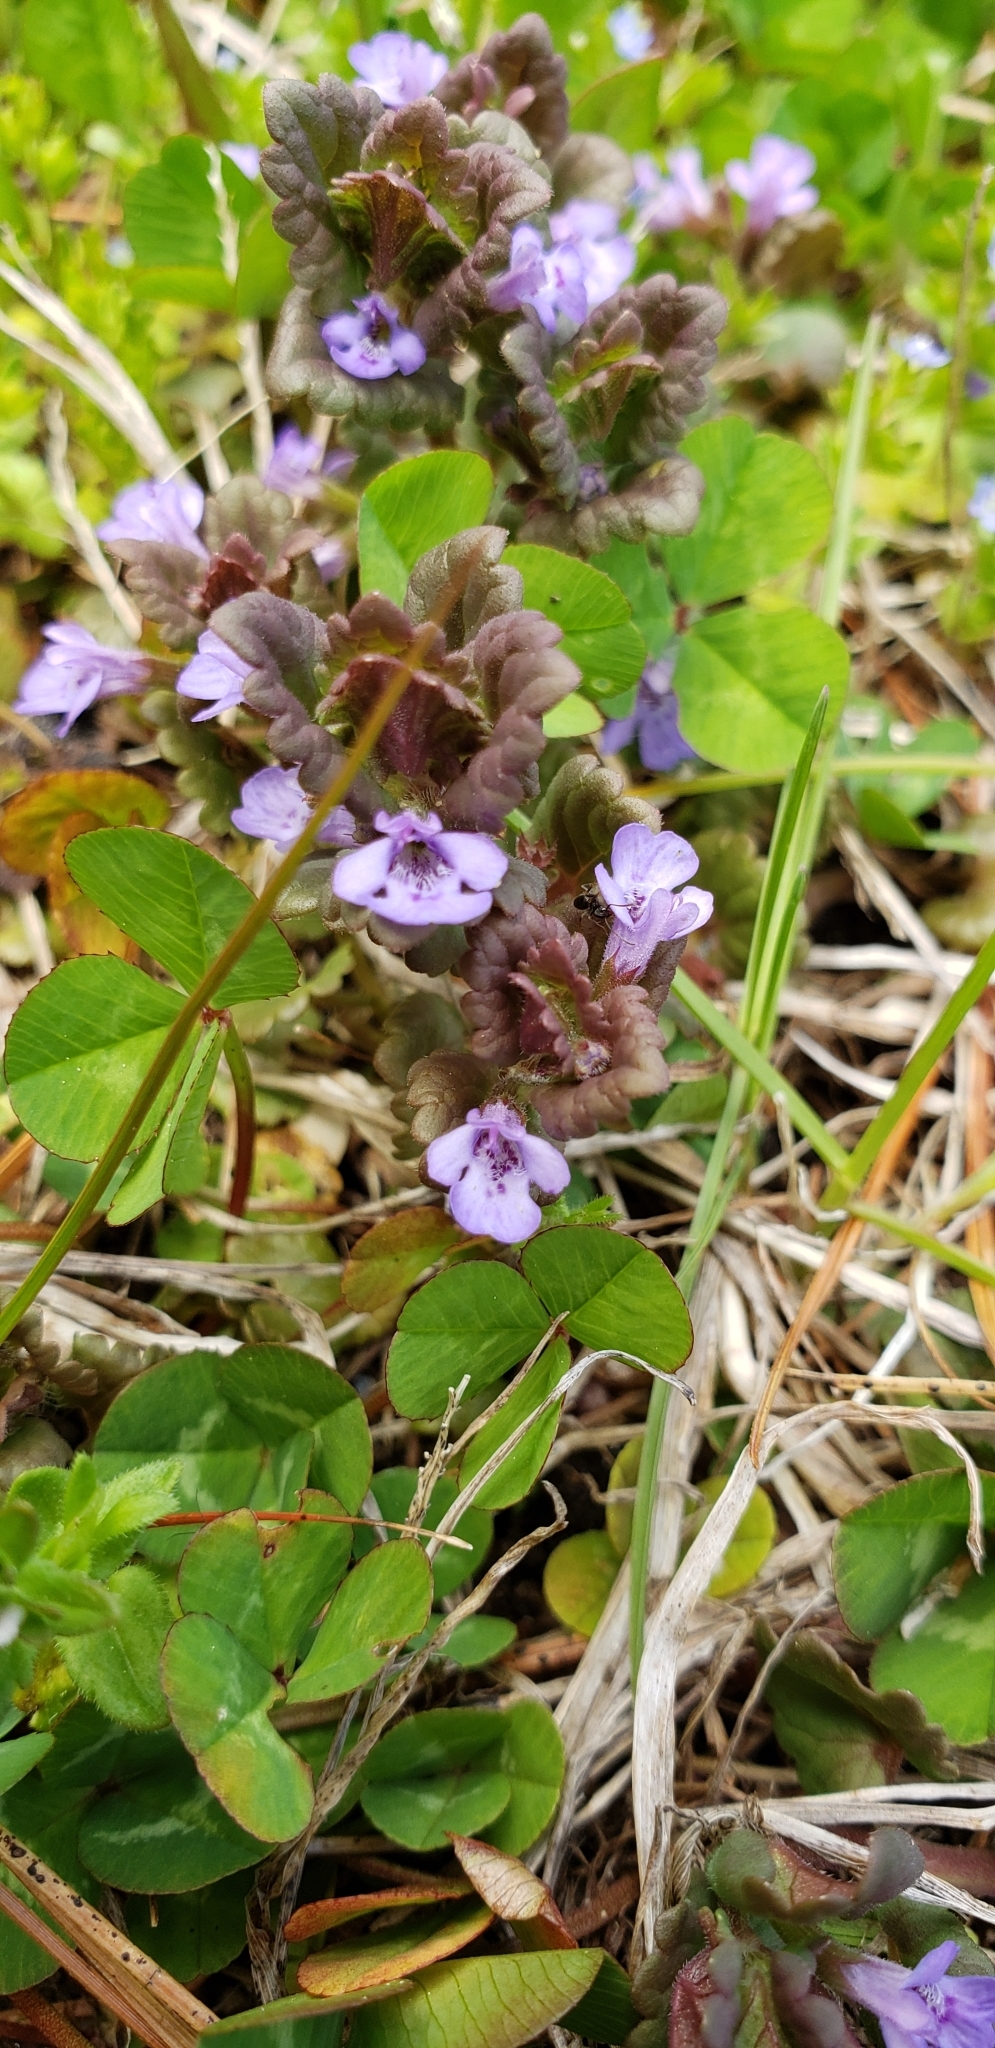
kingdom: Plantae
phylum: Tracheophyta
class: Magnoliopsida
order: Lamiales
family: Lamiaceae
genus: Glechoma
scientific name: Glechoma hederacea
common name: Ground ivy
